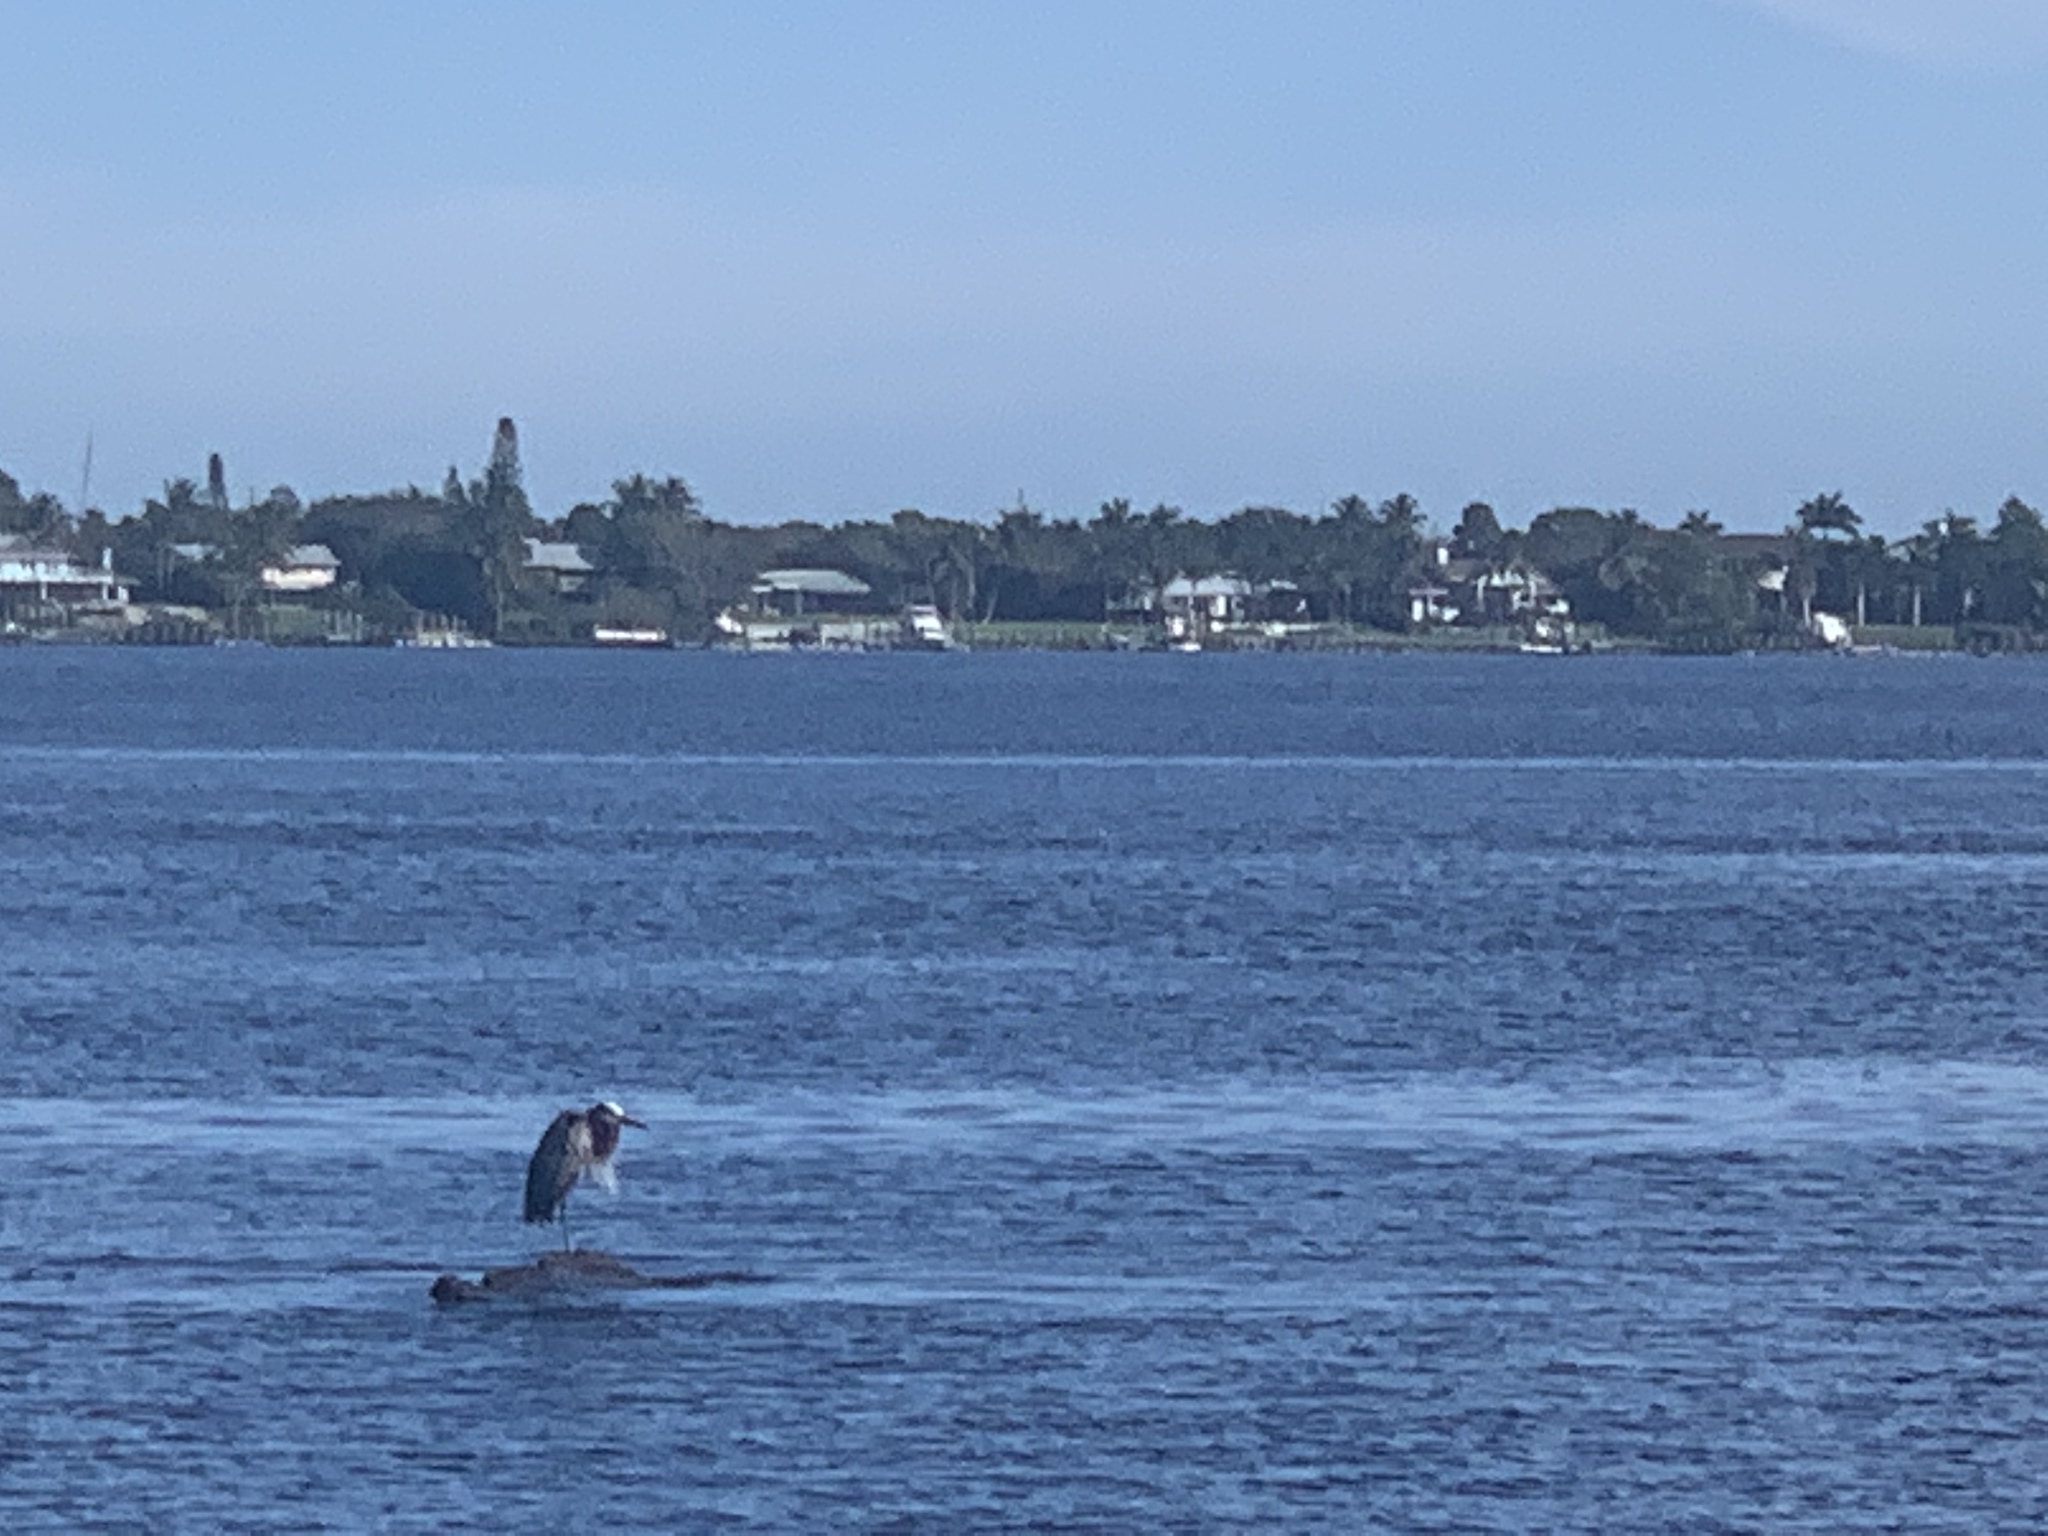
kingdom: Animalia
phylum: Chordata
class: Aves
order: Pelecaniformes
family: Ardeidae
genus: Ardea
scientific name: Ardea herodias
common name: Great blue heron
